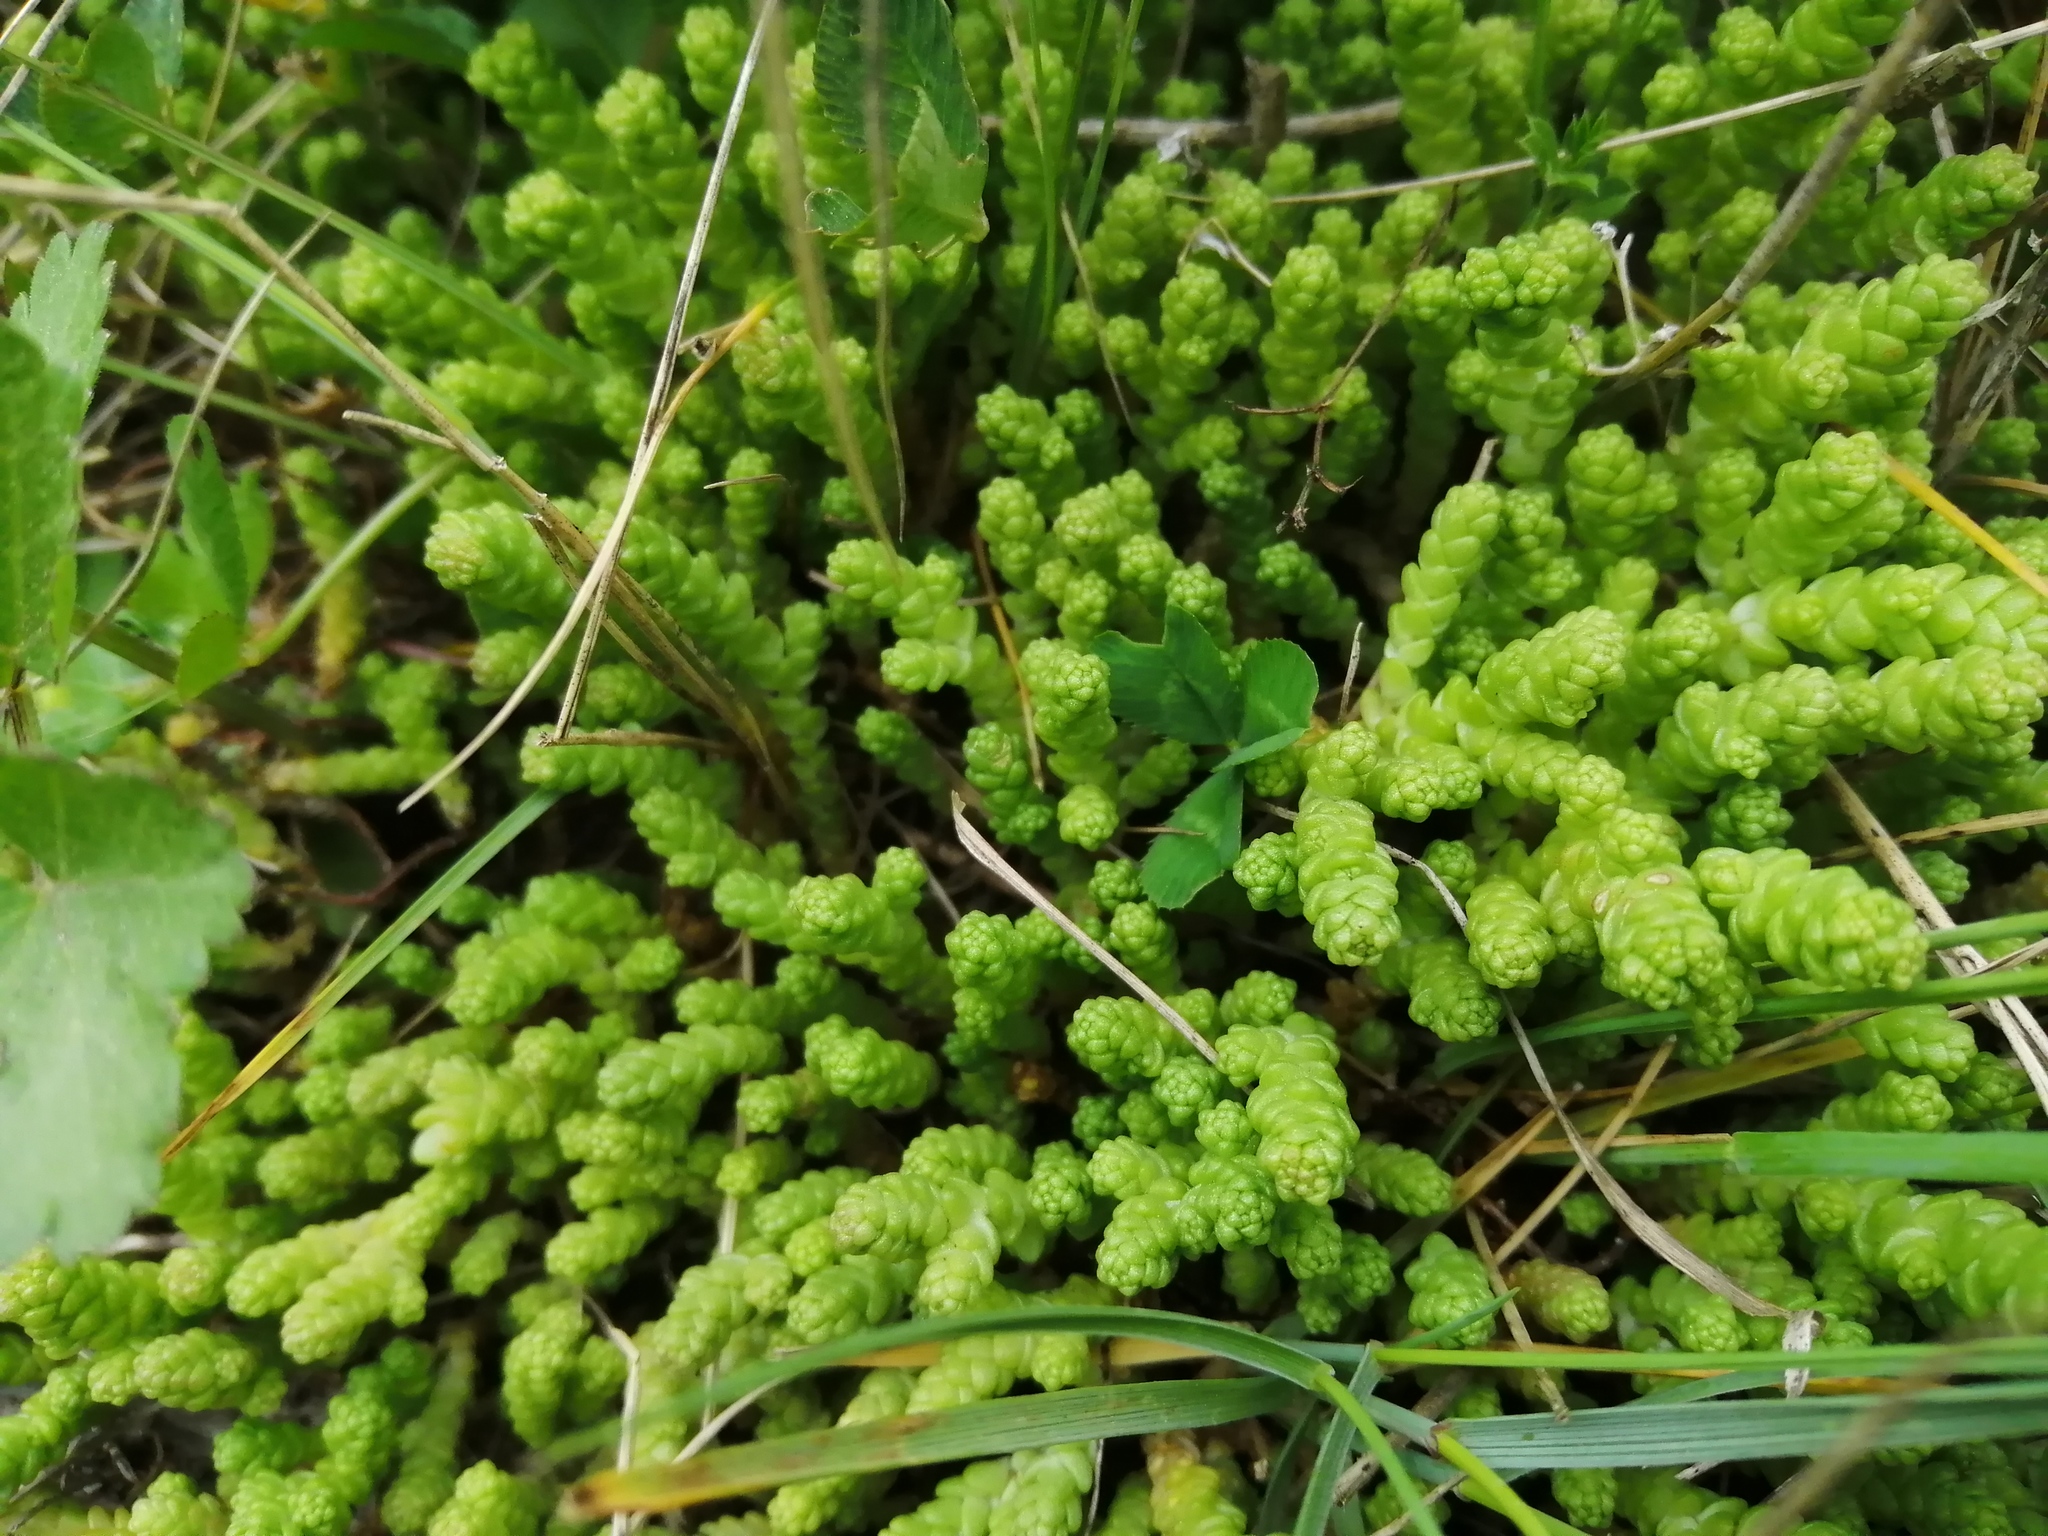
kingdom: Plantae
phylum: Tracheophyta
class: Magnoliopsida
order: Saxifragales
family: Crassulaceae
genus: Sedum
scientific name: Sedum acre
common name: Biting stonecrop
